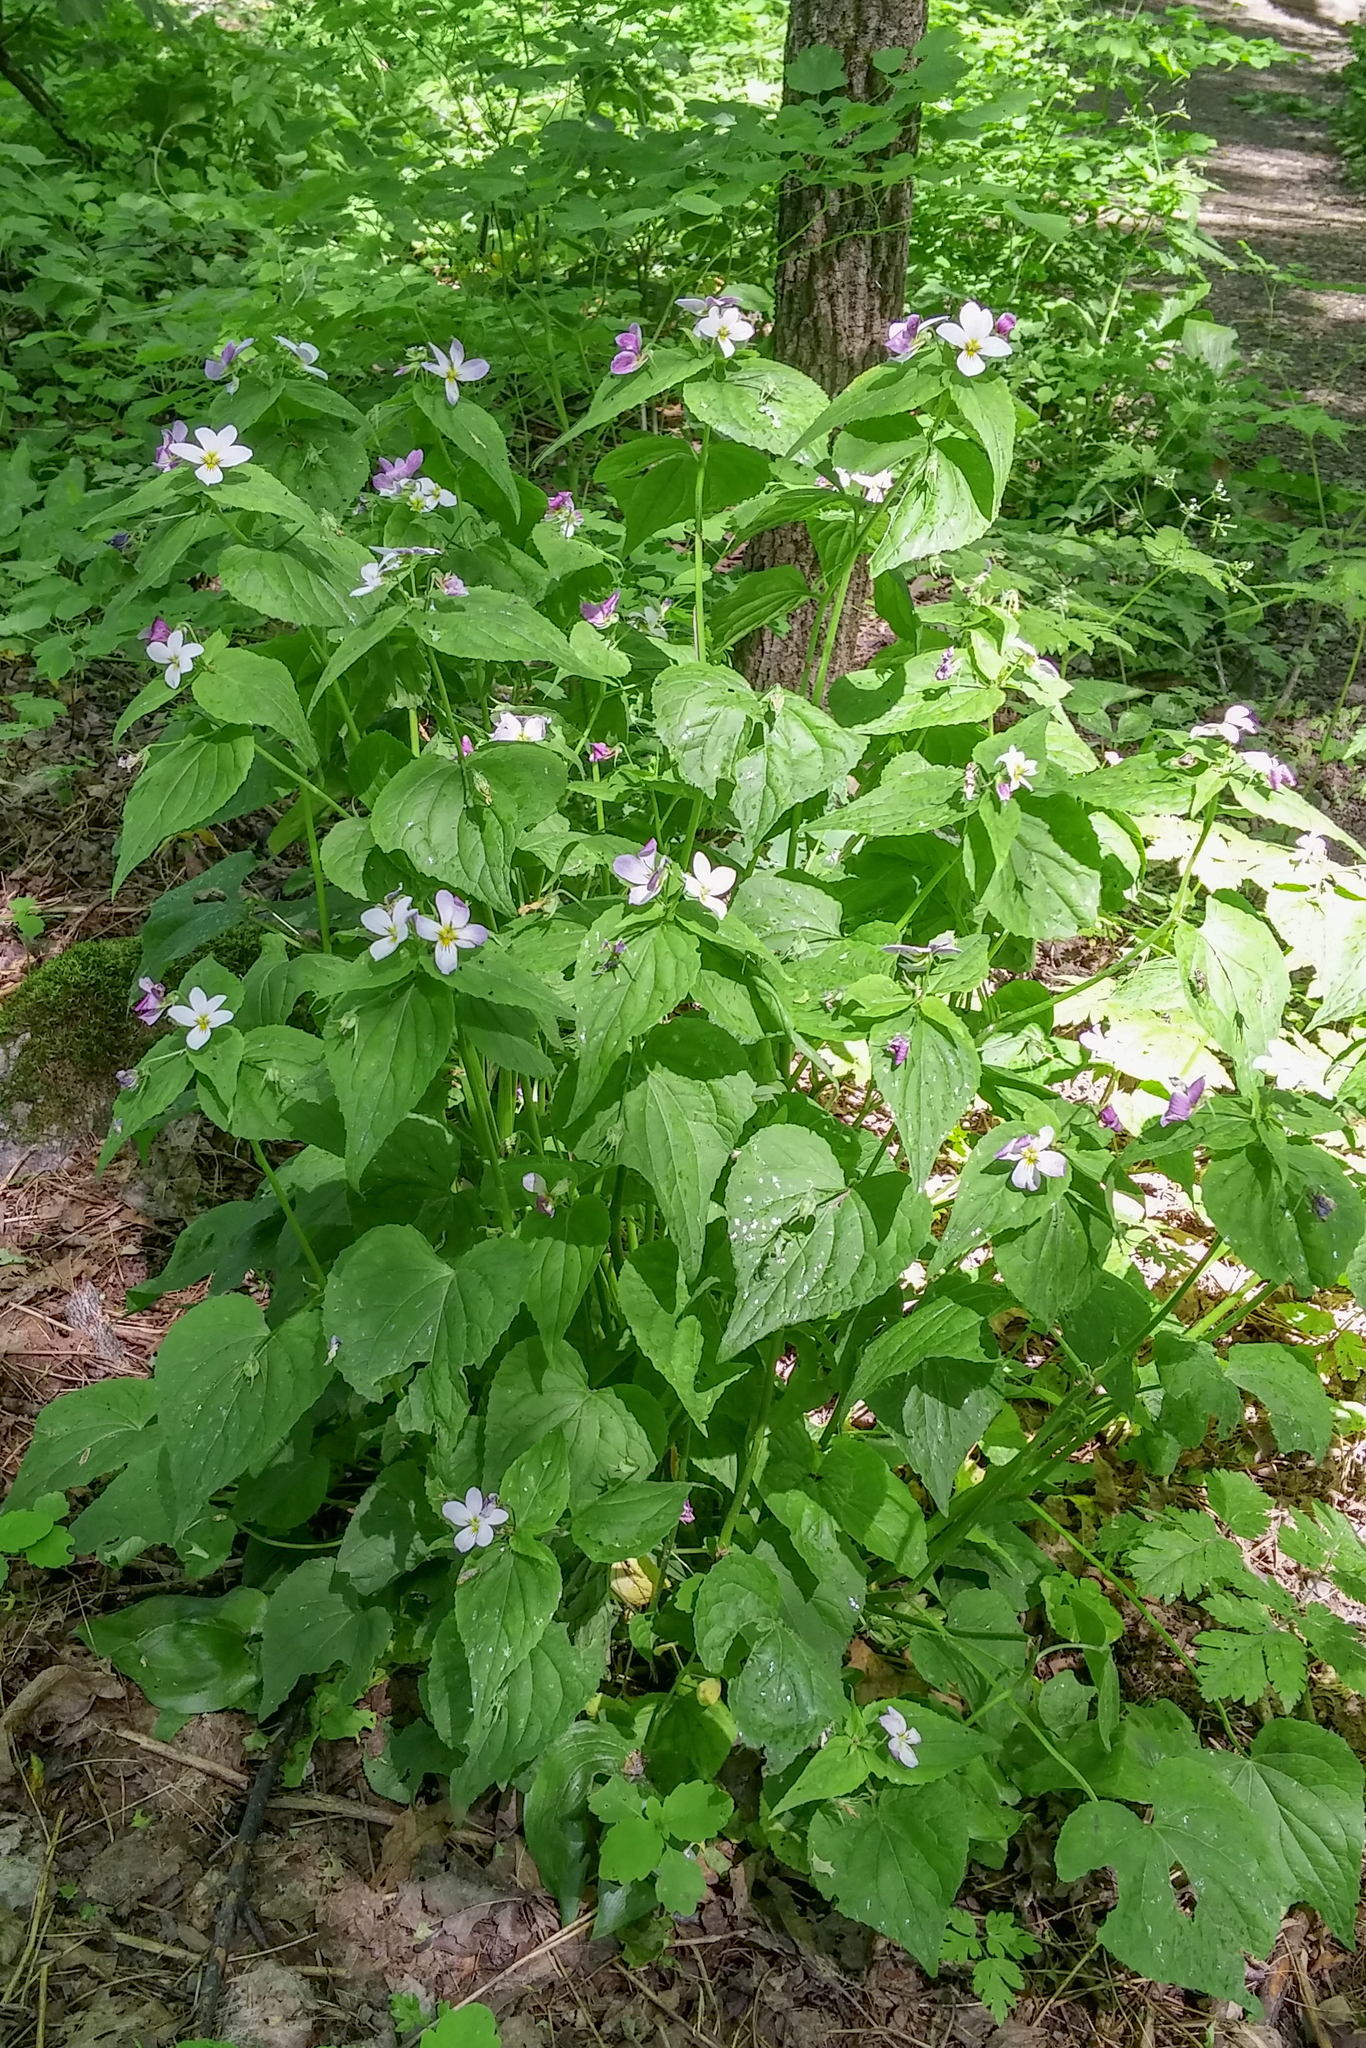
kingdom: Plantae
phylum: Tracheophyta
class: Magnoliopsida
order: Malpighiales
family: Violaceae
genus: Viola
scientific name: Viola canadensis
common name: Canada violet
